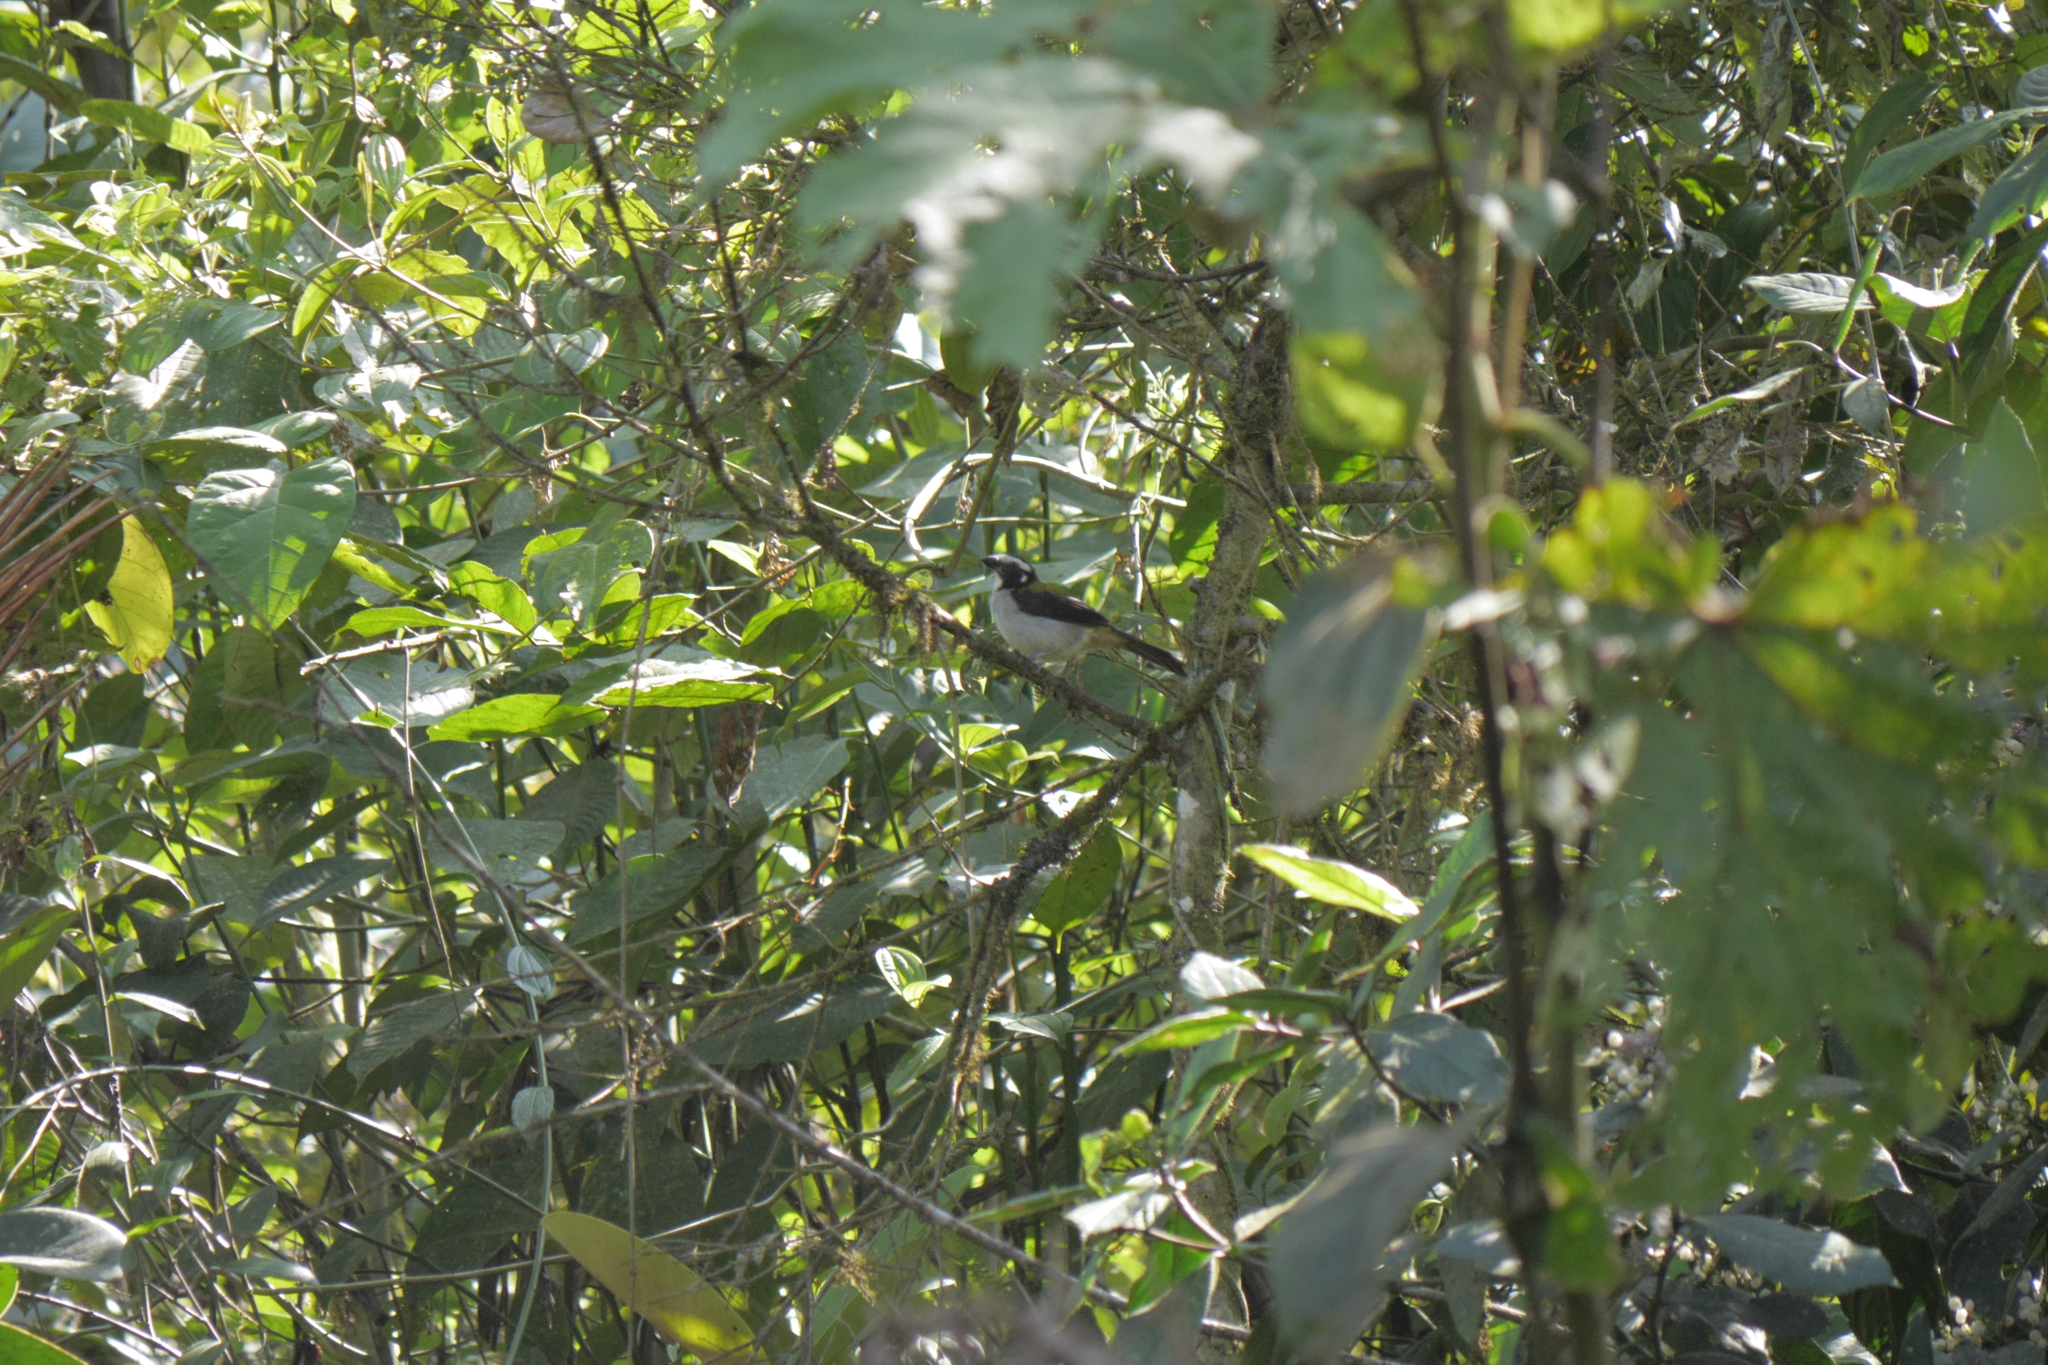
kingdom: Animalia
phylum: Chordata
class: Aves
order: Passeriformes
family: Thraupidae
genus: Saltator
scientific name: Saltator atripennis
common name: Black-winged saltator
